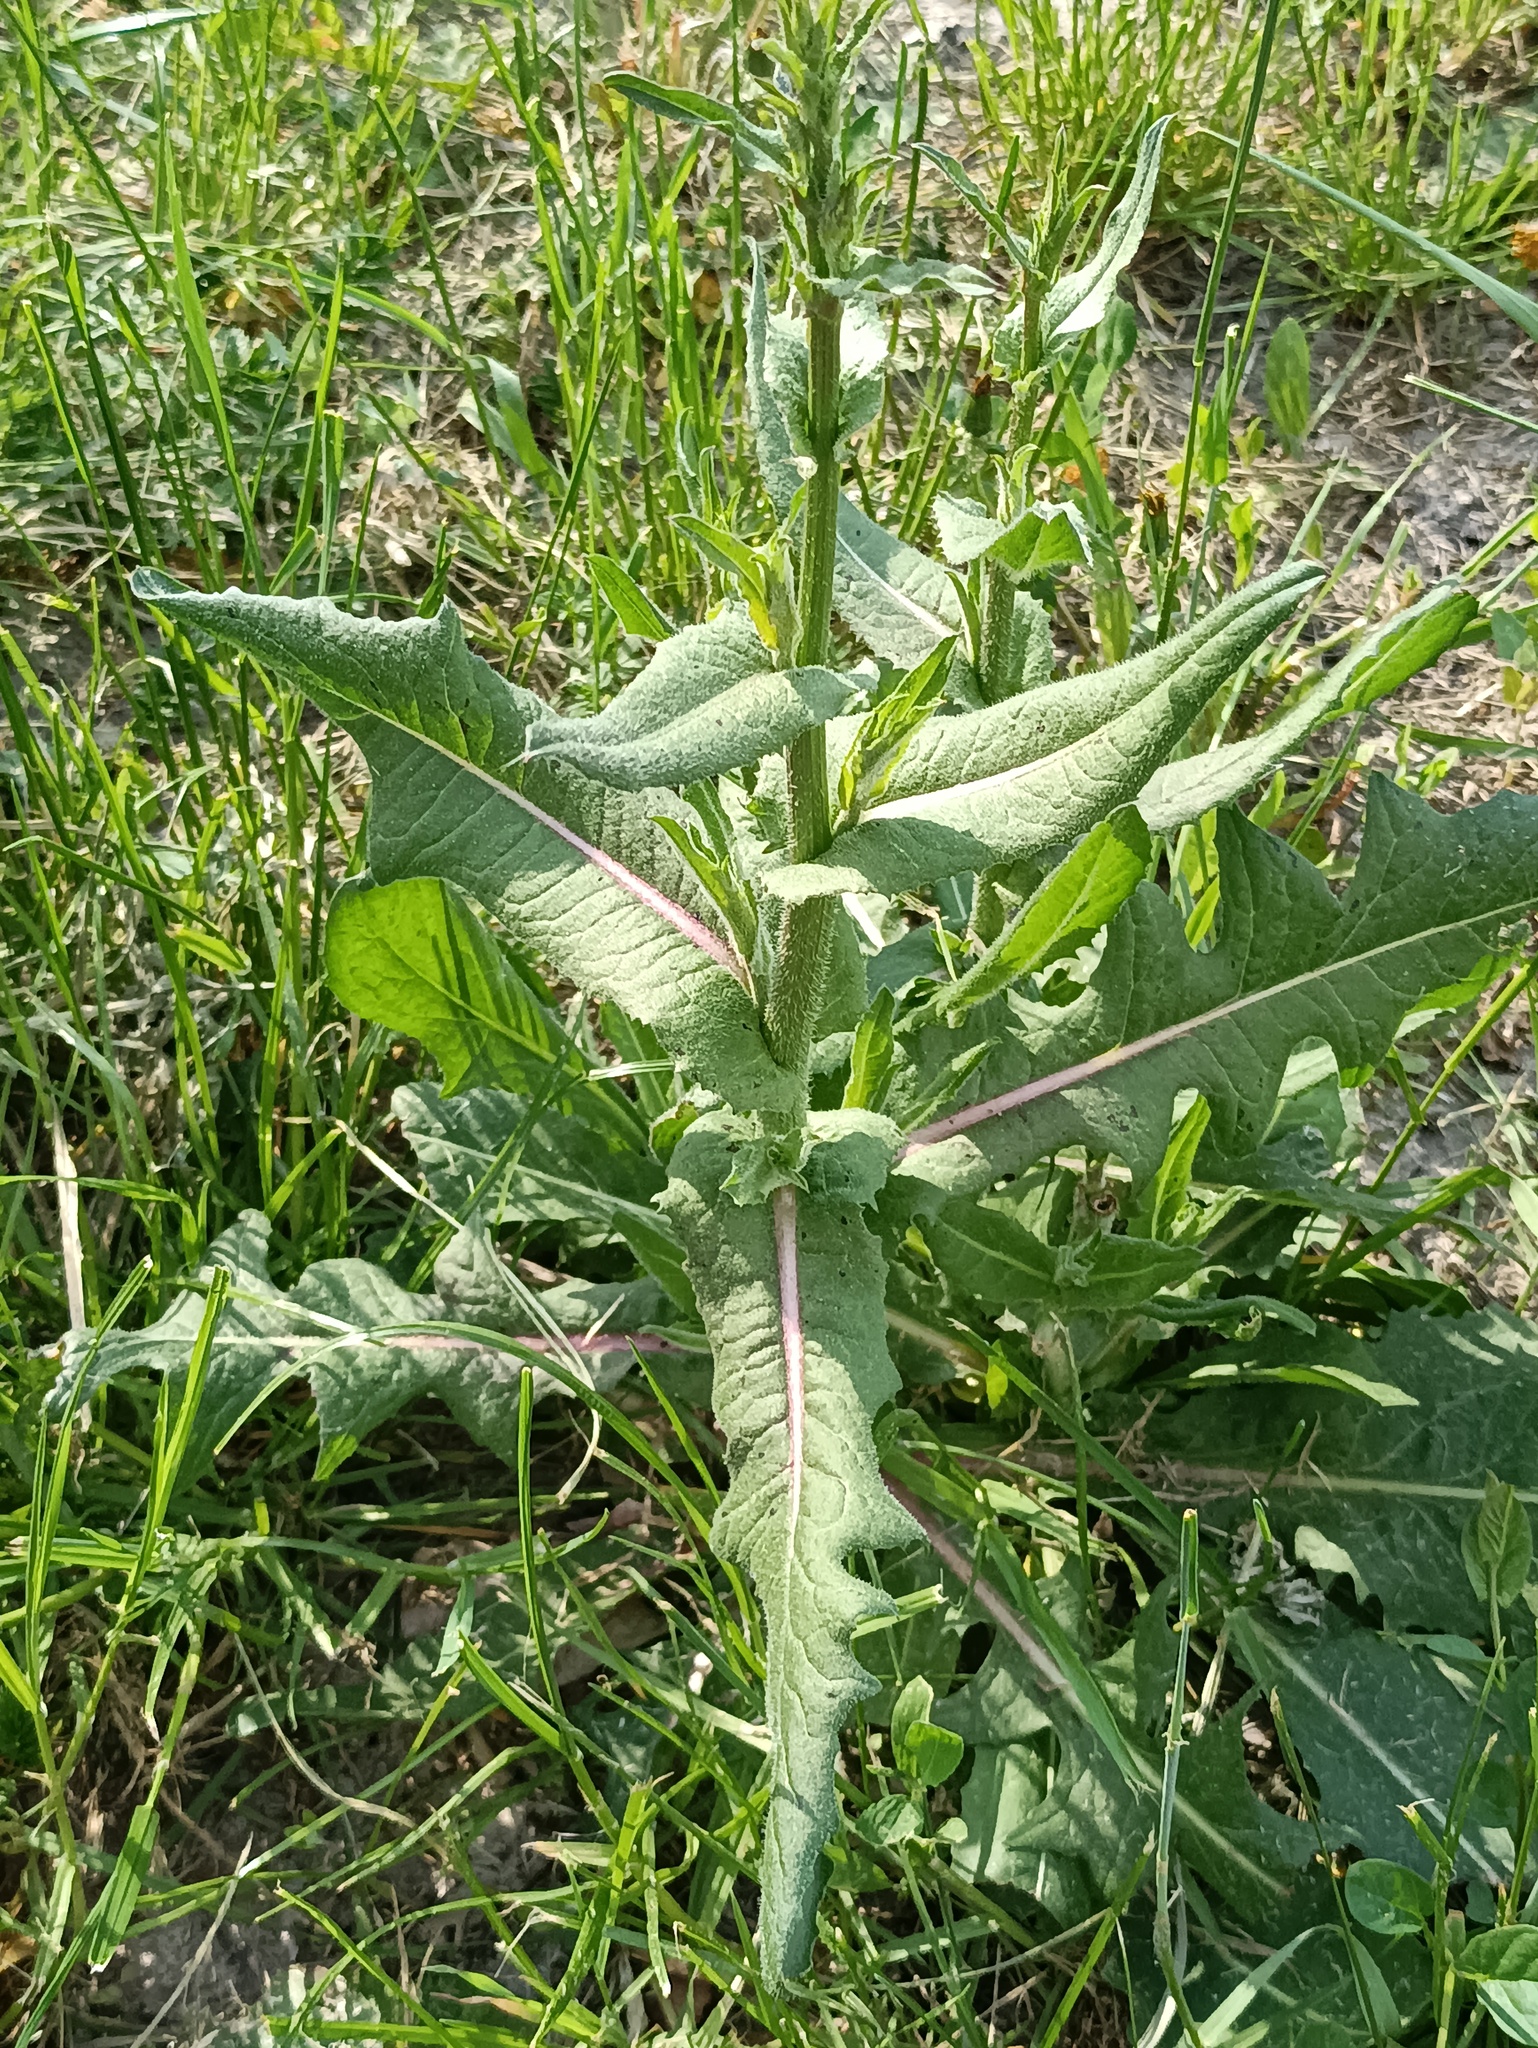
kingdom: Plantae
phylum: Tracheophyta
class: Magnoliopsida
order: Asterales
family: Asteraceae
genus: Cichorium
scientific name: Cichorium intybus
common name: Chicory
